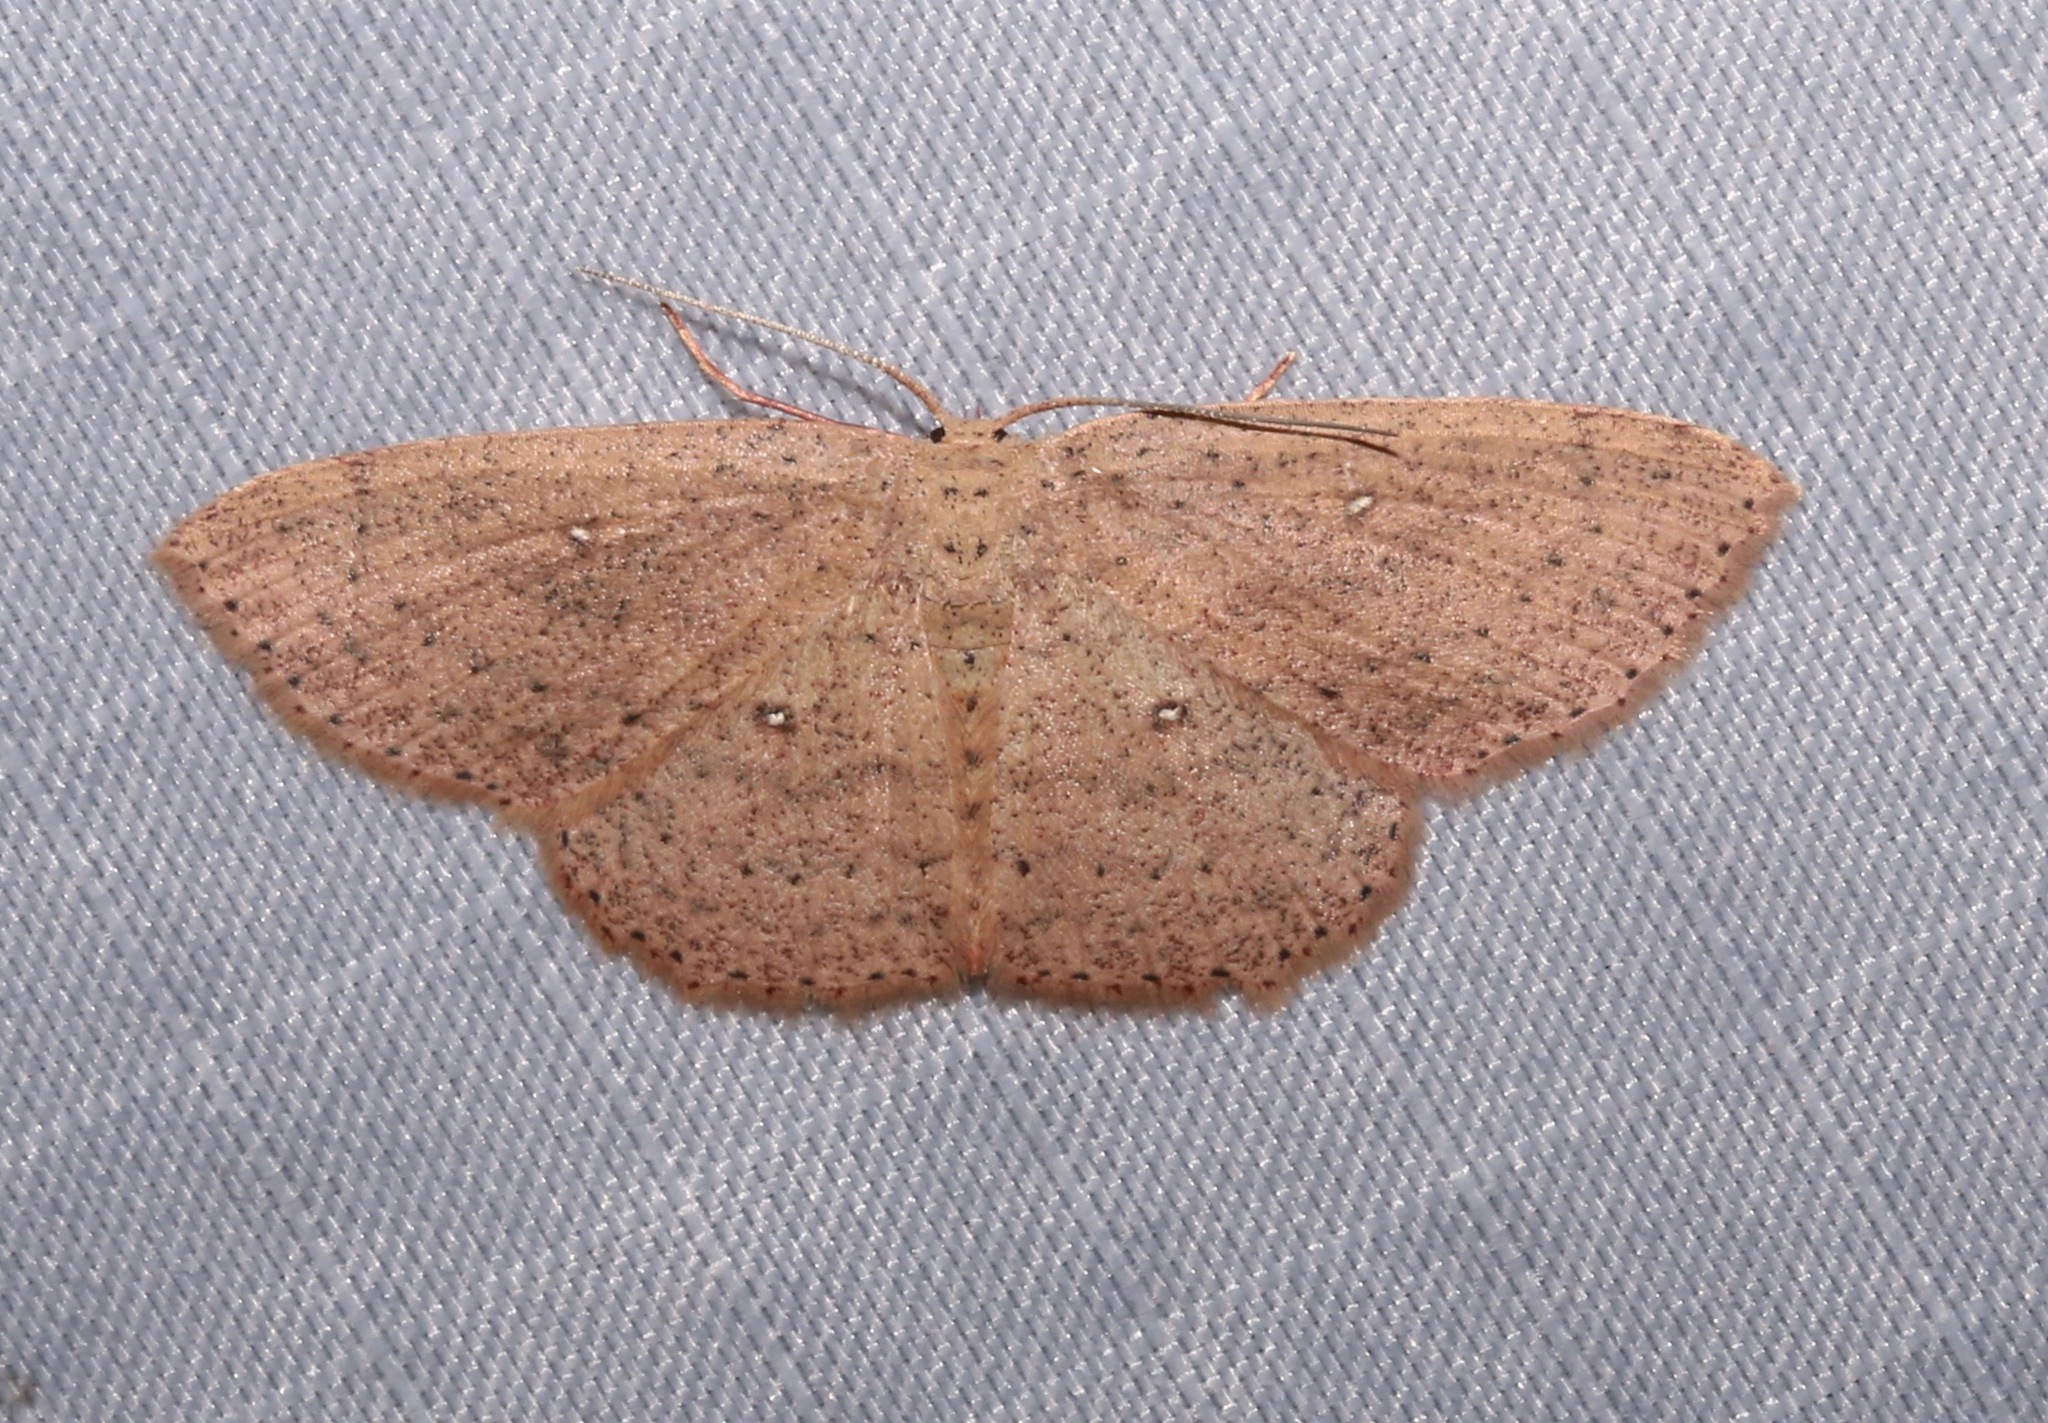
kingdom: Animalia
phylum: Arthropoda
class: Insecta
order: Lepidoptera
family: Geometridae
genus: Cyclophora
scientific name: Cyclophora myrtaria
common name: Waxmyrtle wave moth
